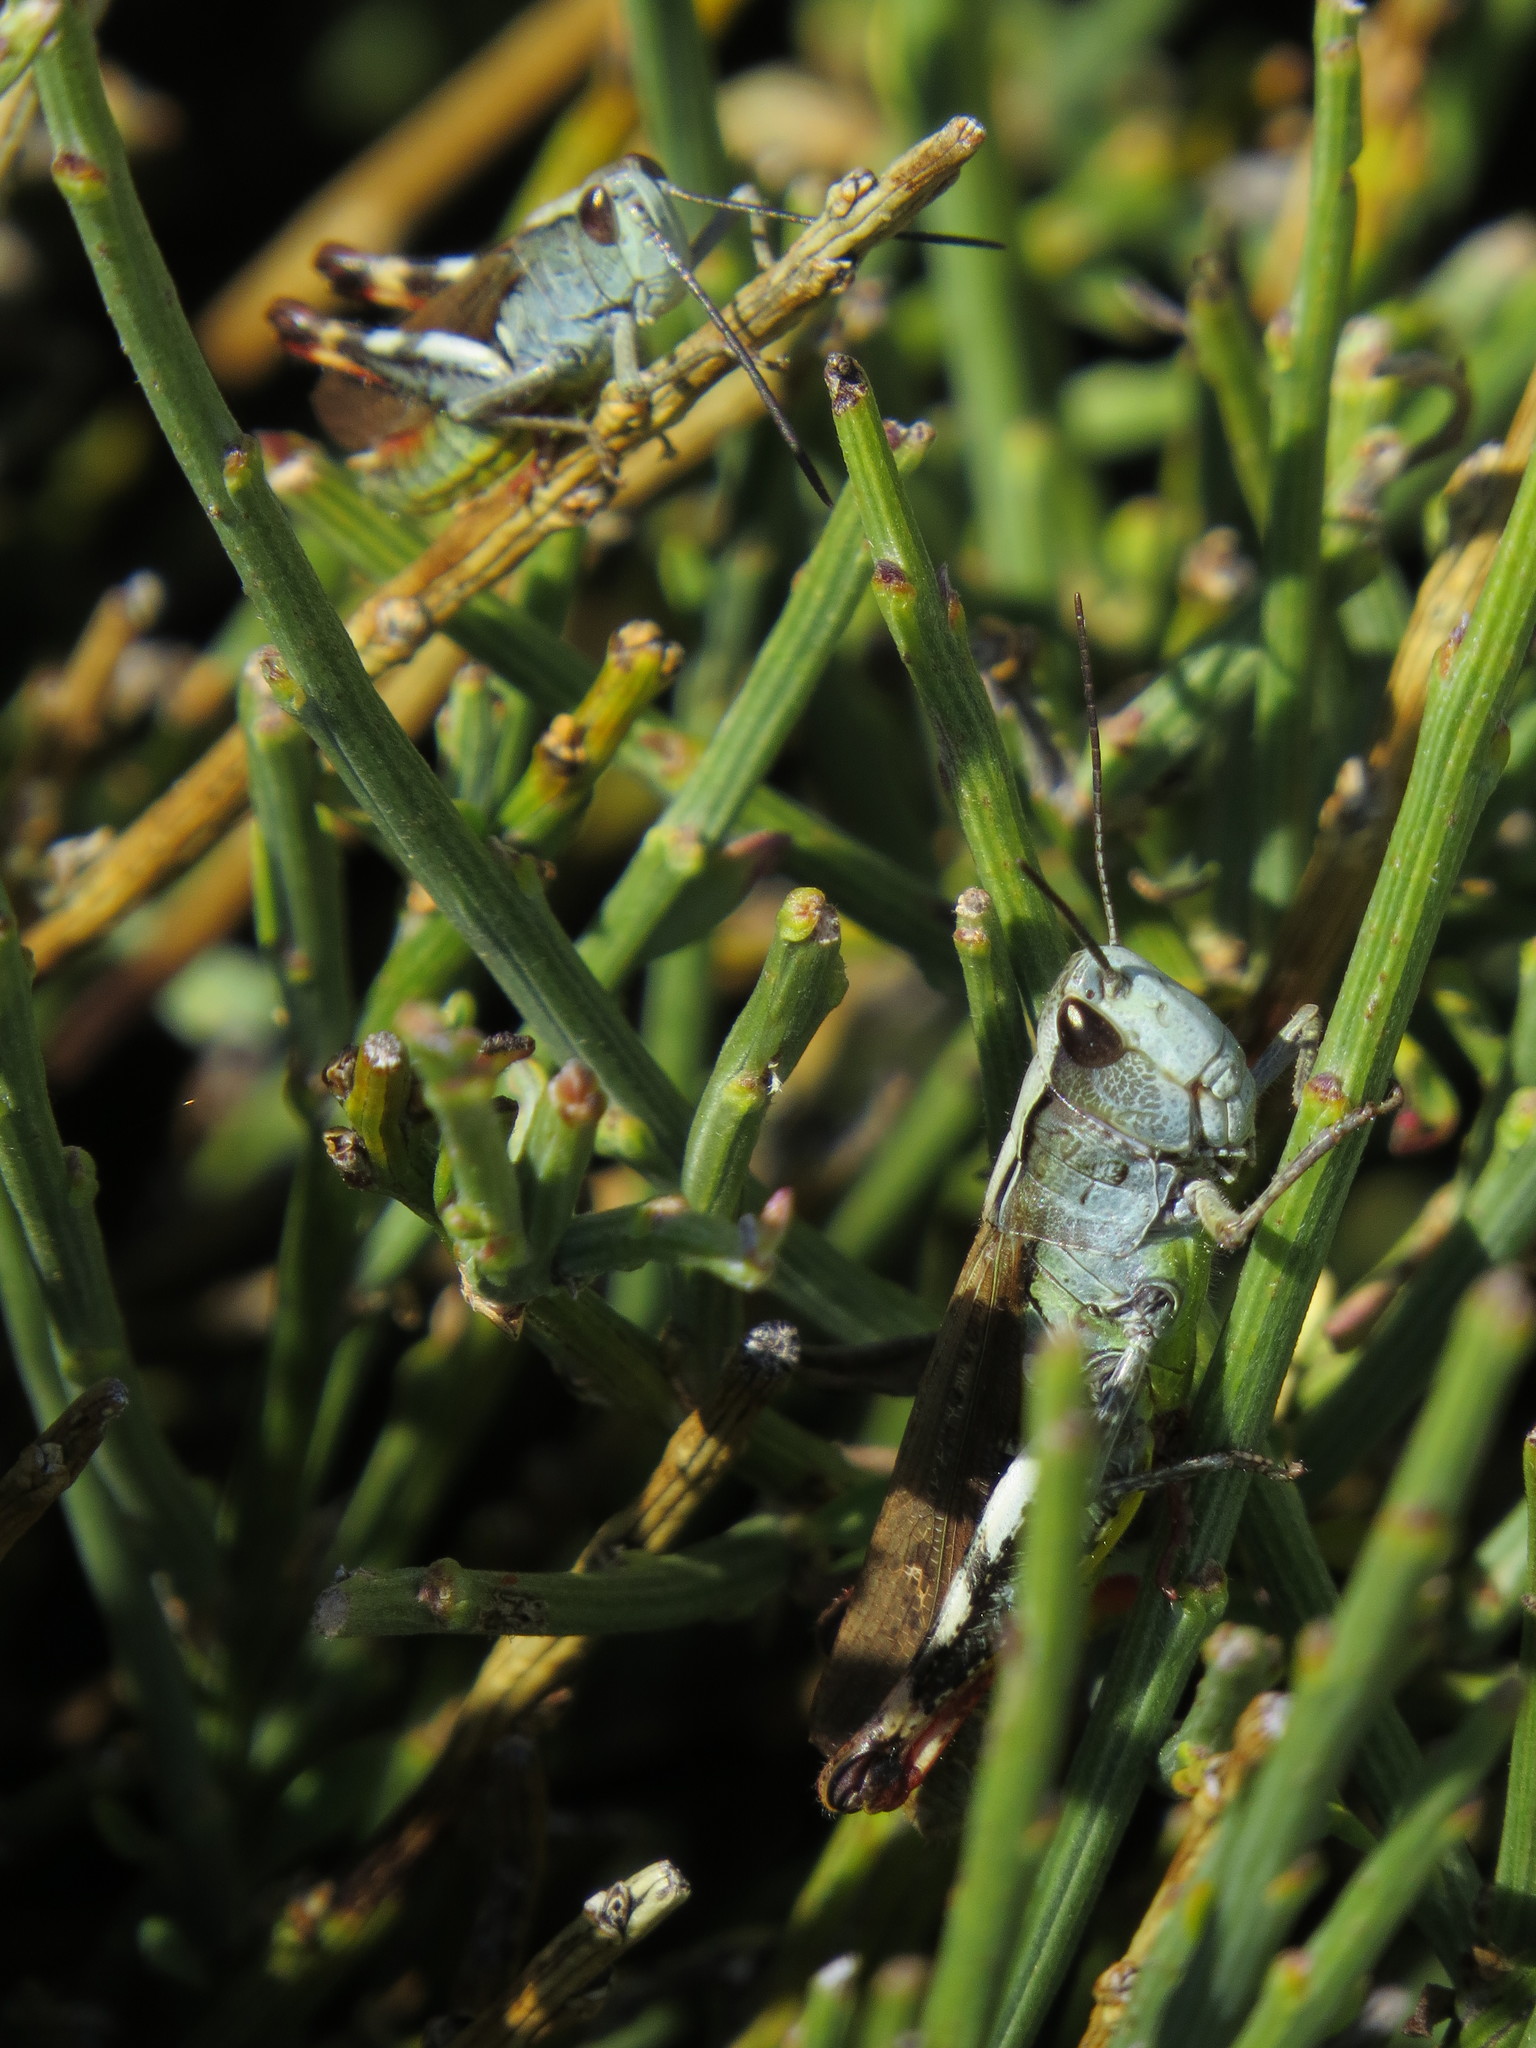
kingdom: Animalia
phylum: Arthropoda
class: Insecta
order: Orthoptera
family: Acrididae
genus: Chorthippus
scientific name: Chorthippus binotatus
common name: Two-marked grasshopper
